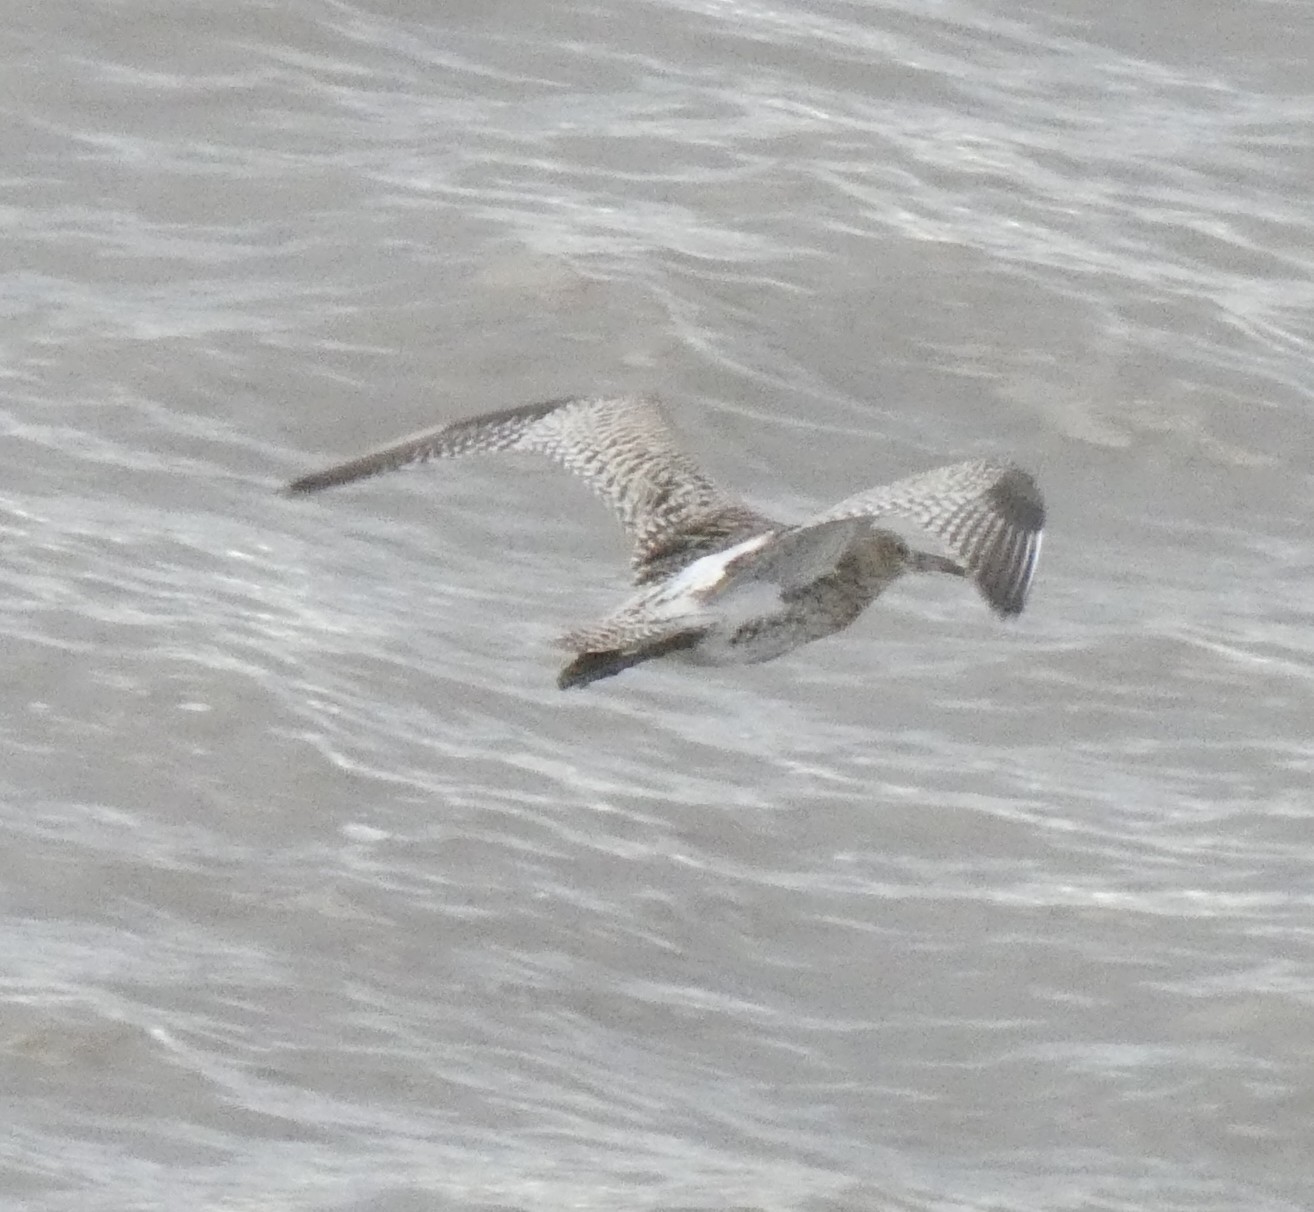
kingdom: Animalia
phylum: Chordata
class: Aves
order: Charadriiformes
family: Scolopacidae
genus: Numenius
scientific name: Numenius arquata
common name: Eurasian curlew
